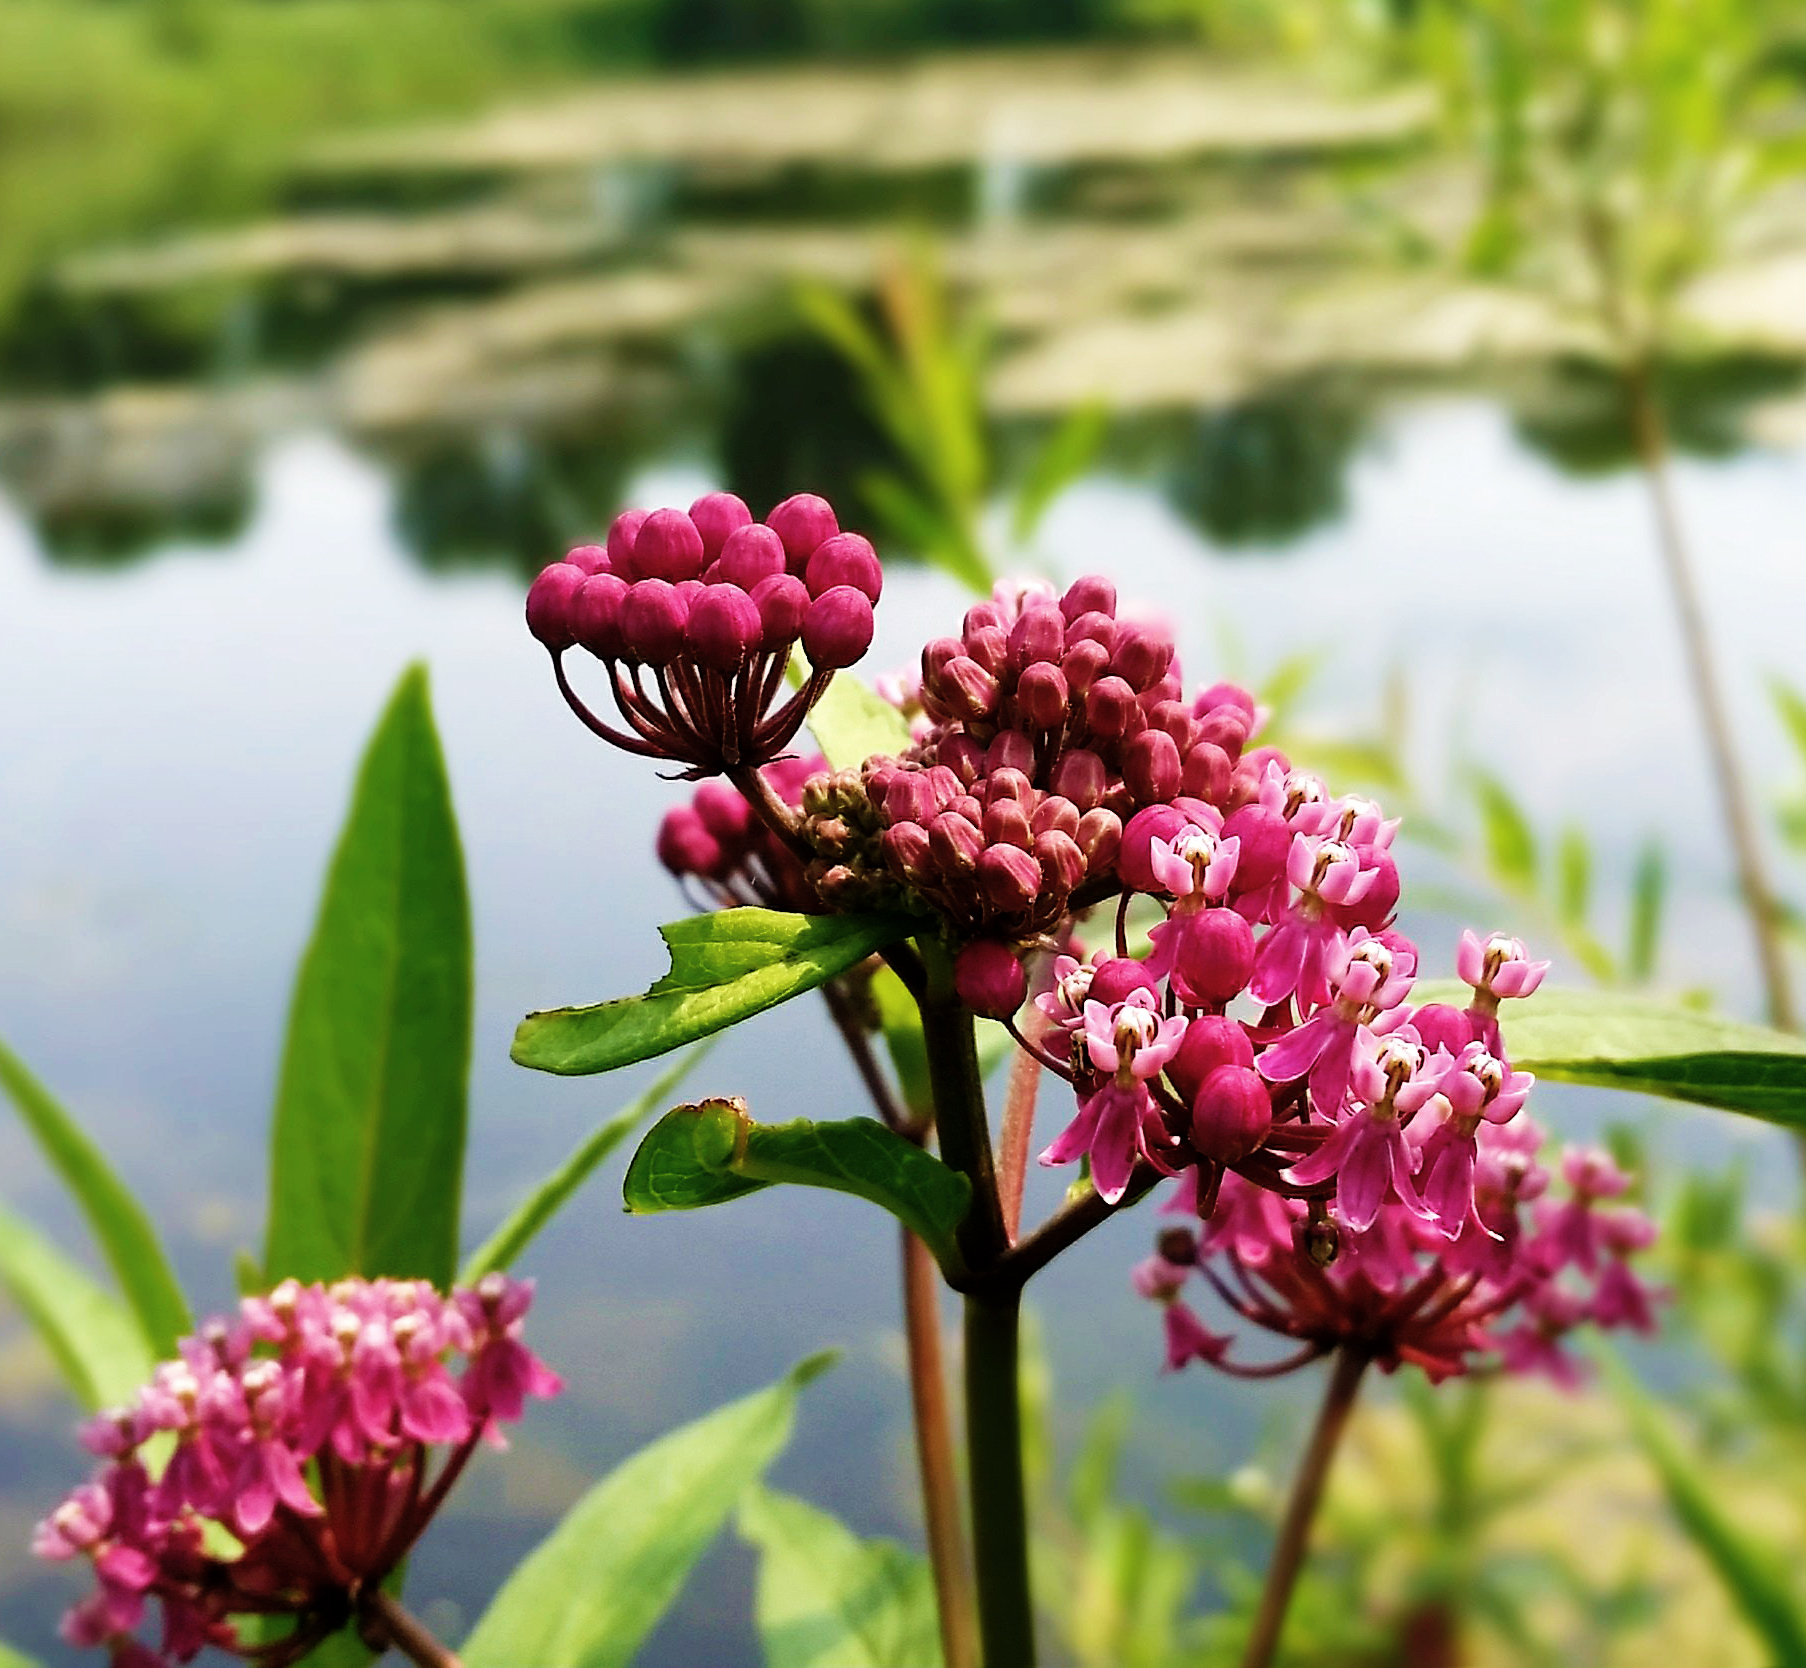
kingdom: Plantae
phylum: Tracheophyta
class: Magnoliopsida
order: Gentianales
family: Apocynaceae
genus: Asclepias
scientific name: Asclepias incarnata
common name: Swamp milkweed
